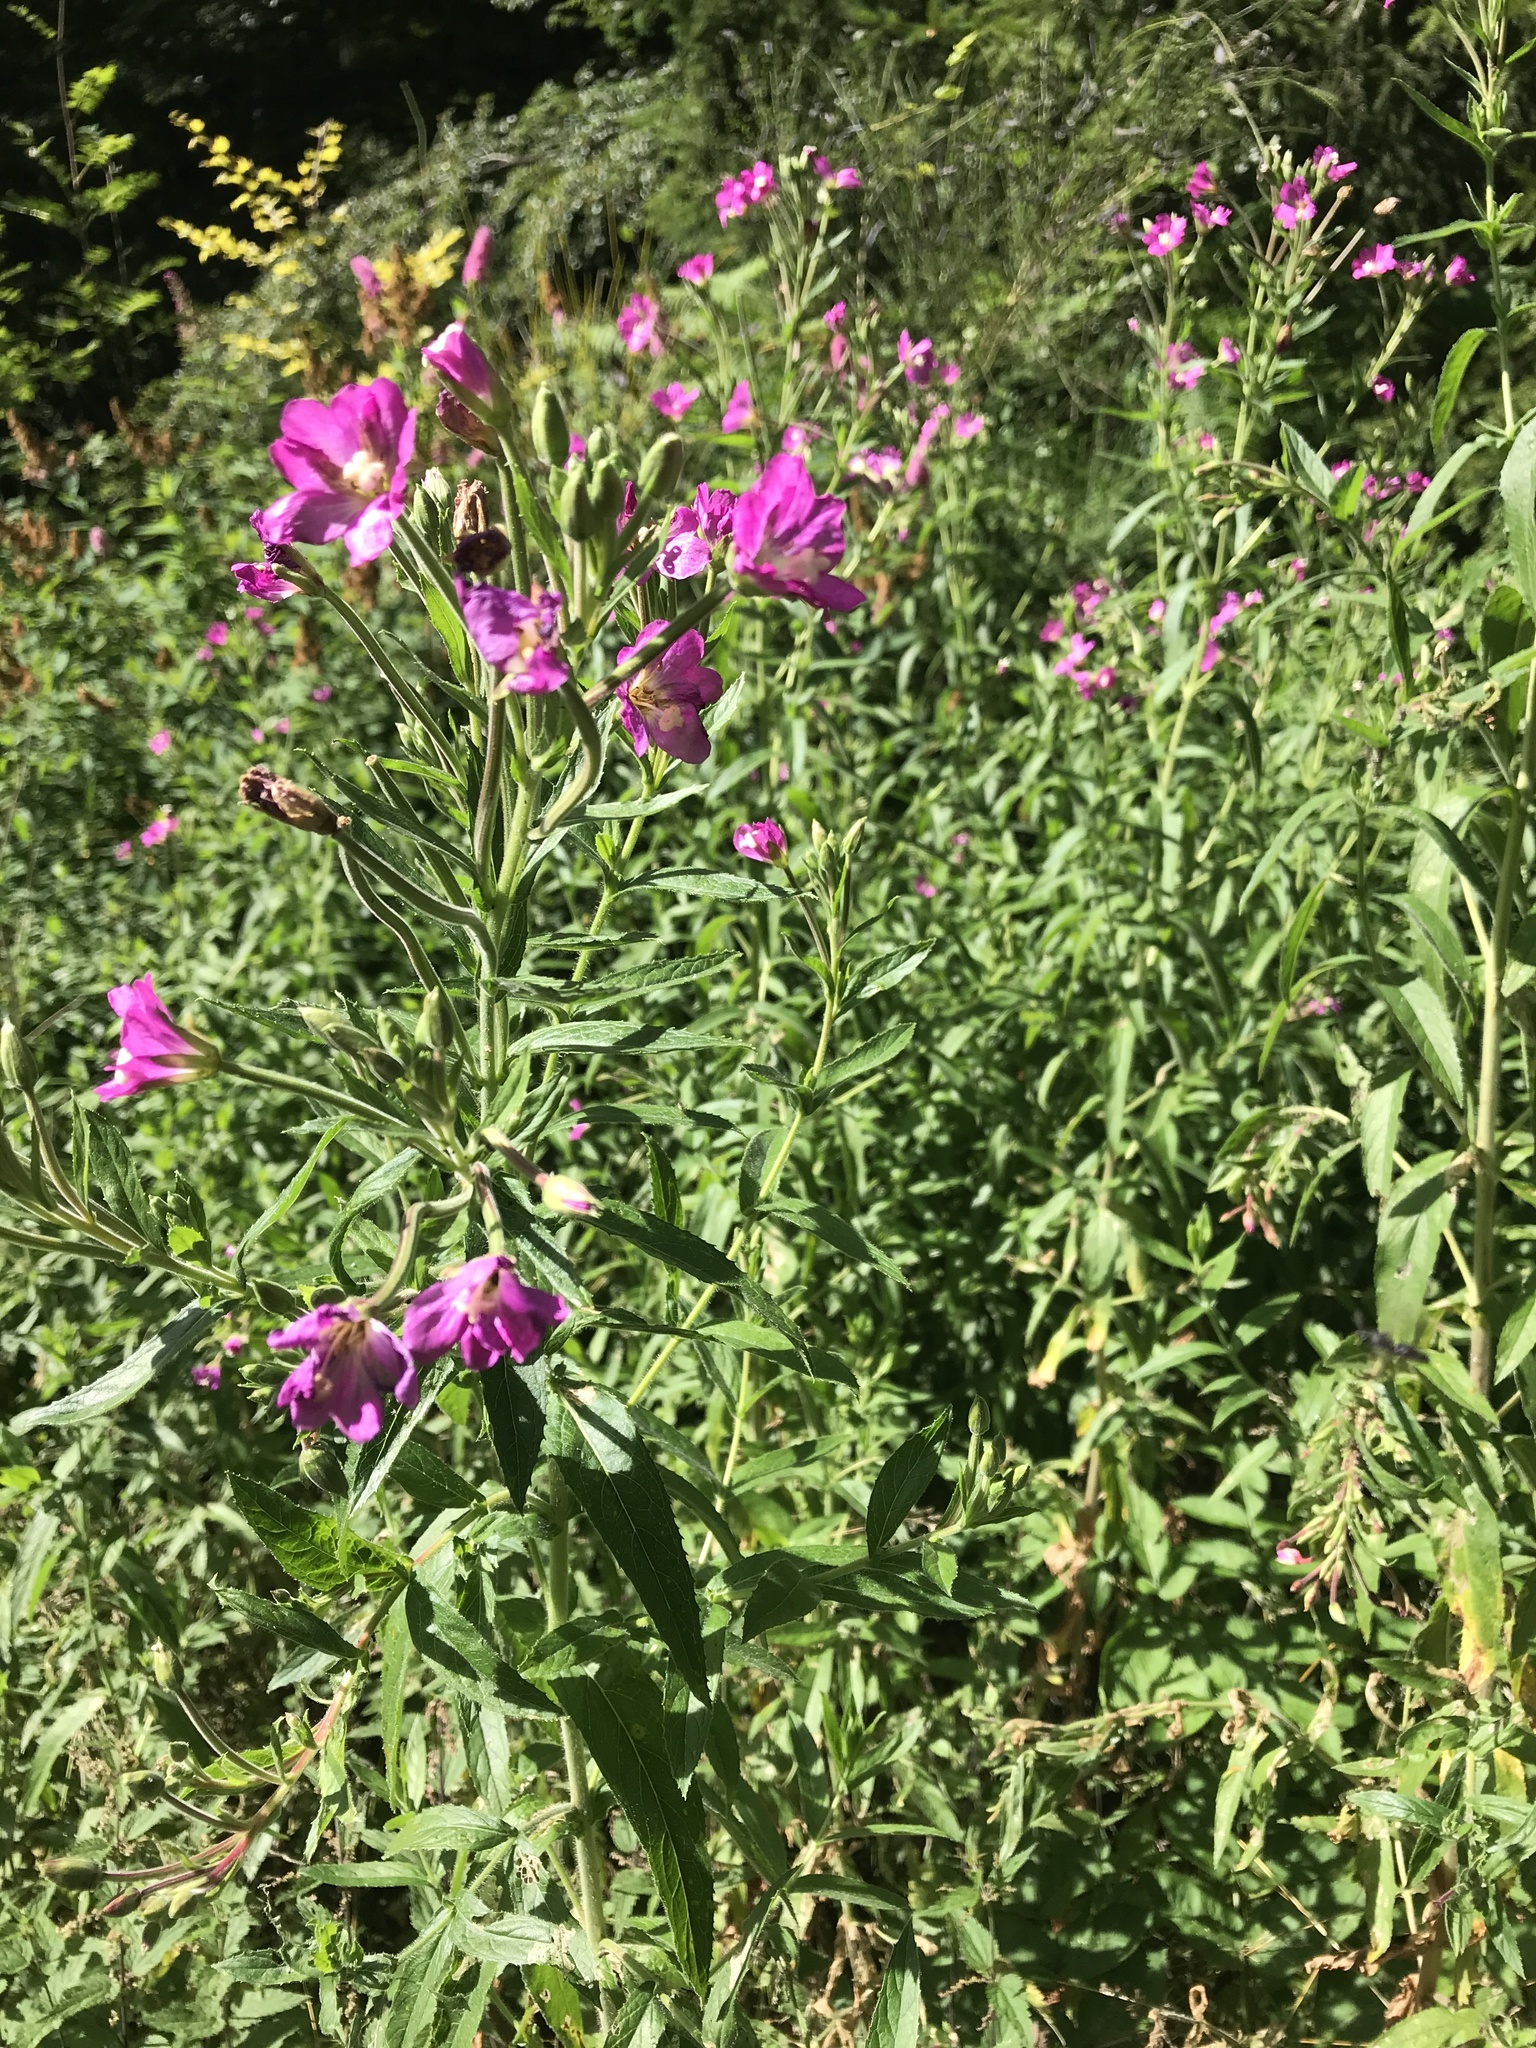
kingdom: Plantae
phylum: Tracheophyta
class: Magnoliopsida
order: Myrtales
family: Onagraceae
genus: Epilobium
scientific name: Epilobium hirsutum
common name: Great willowherb
